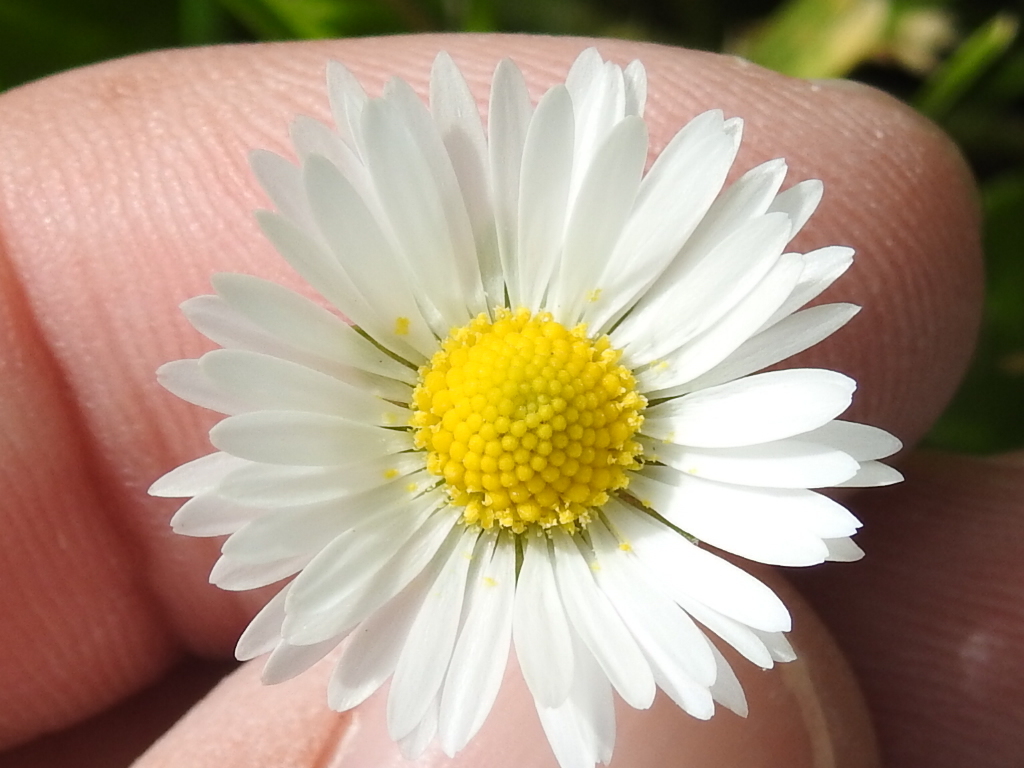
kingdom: Plantae
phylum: Tracheophyta
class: Magnoliopsida
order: Asterales
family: Asteraceae
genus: Bellis
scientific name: Bellis perennis
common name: Lawndaisy
